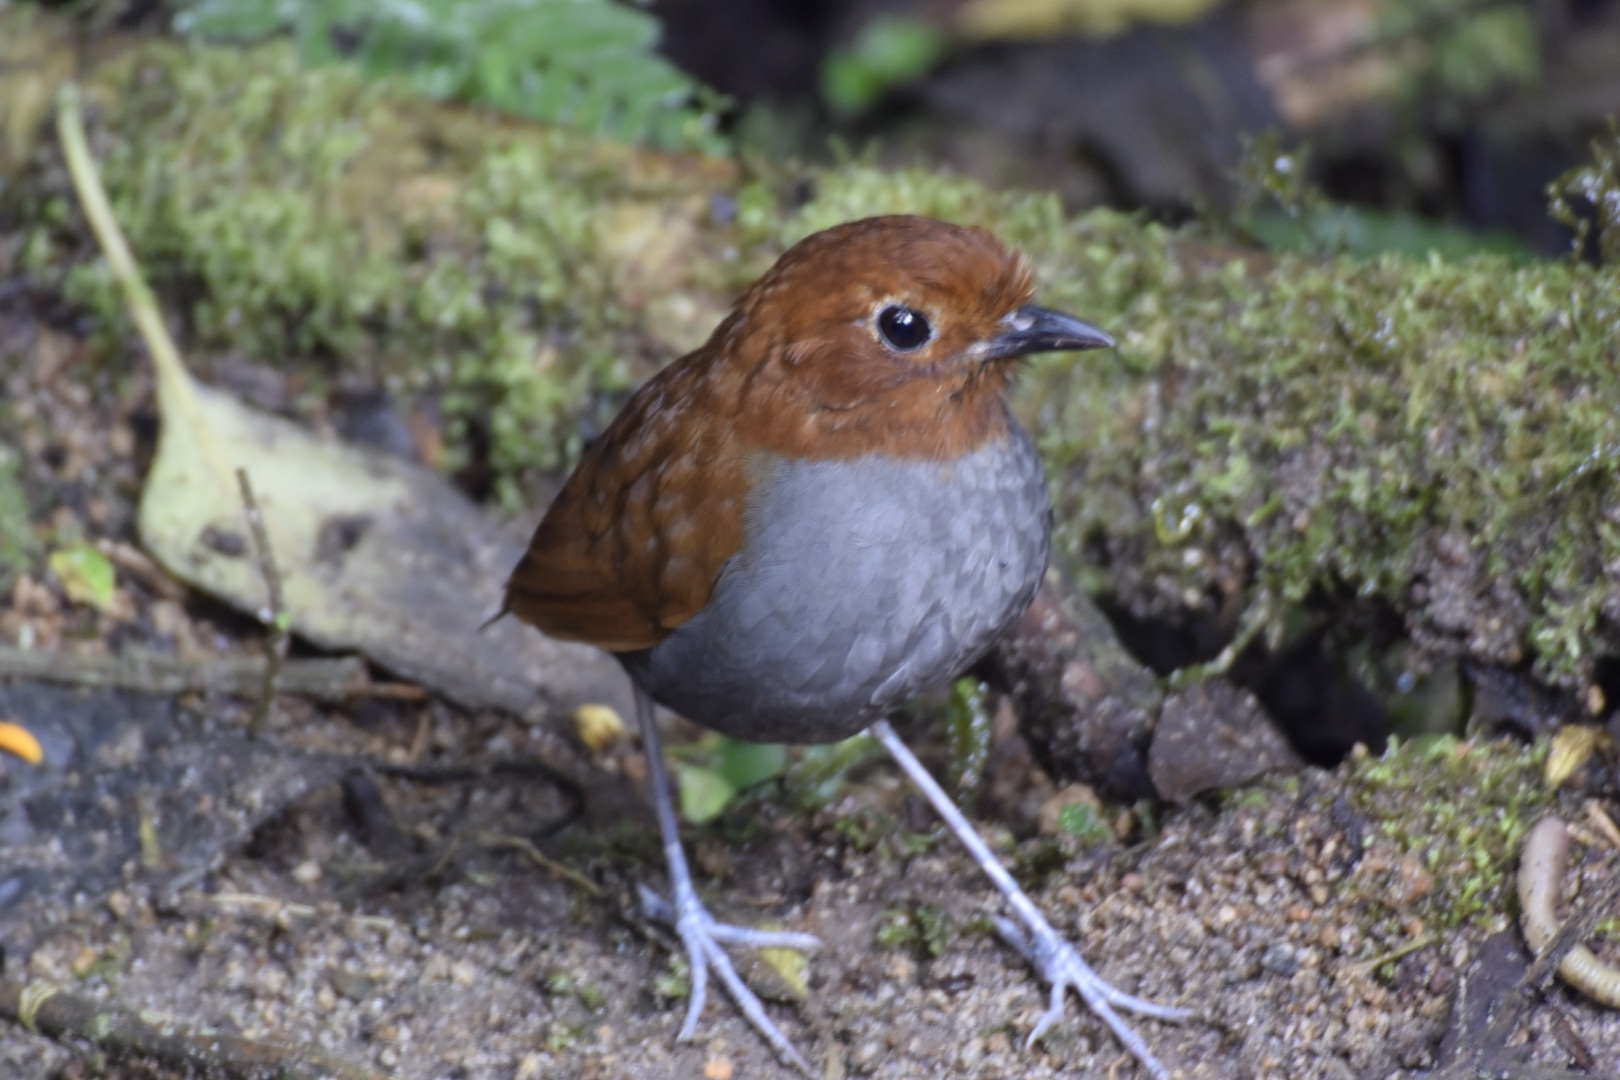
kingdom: Animalia
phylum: Chordata
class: Aves
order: Passeriformes
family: Grallariidae
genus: Grallaria
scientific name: Grallaria rufocinerea
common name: Bicolored antpitta
